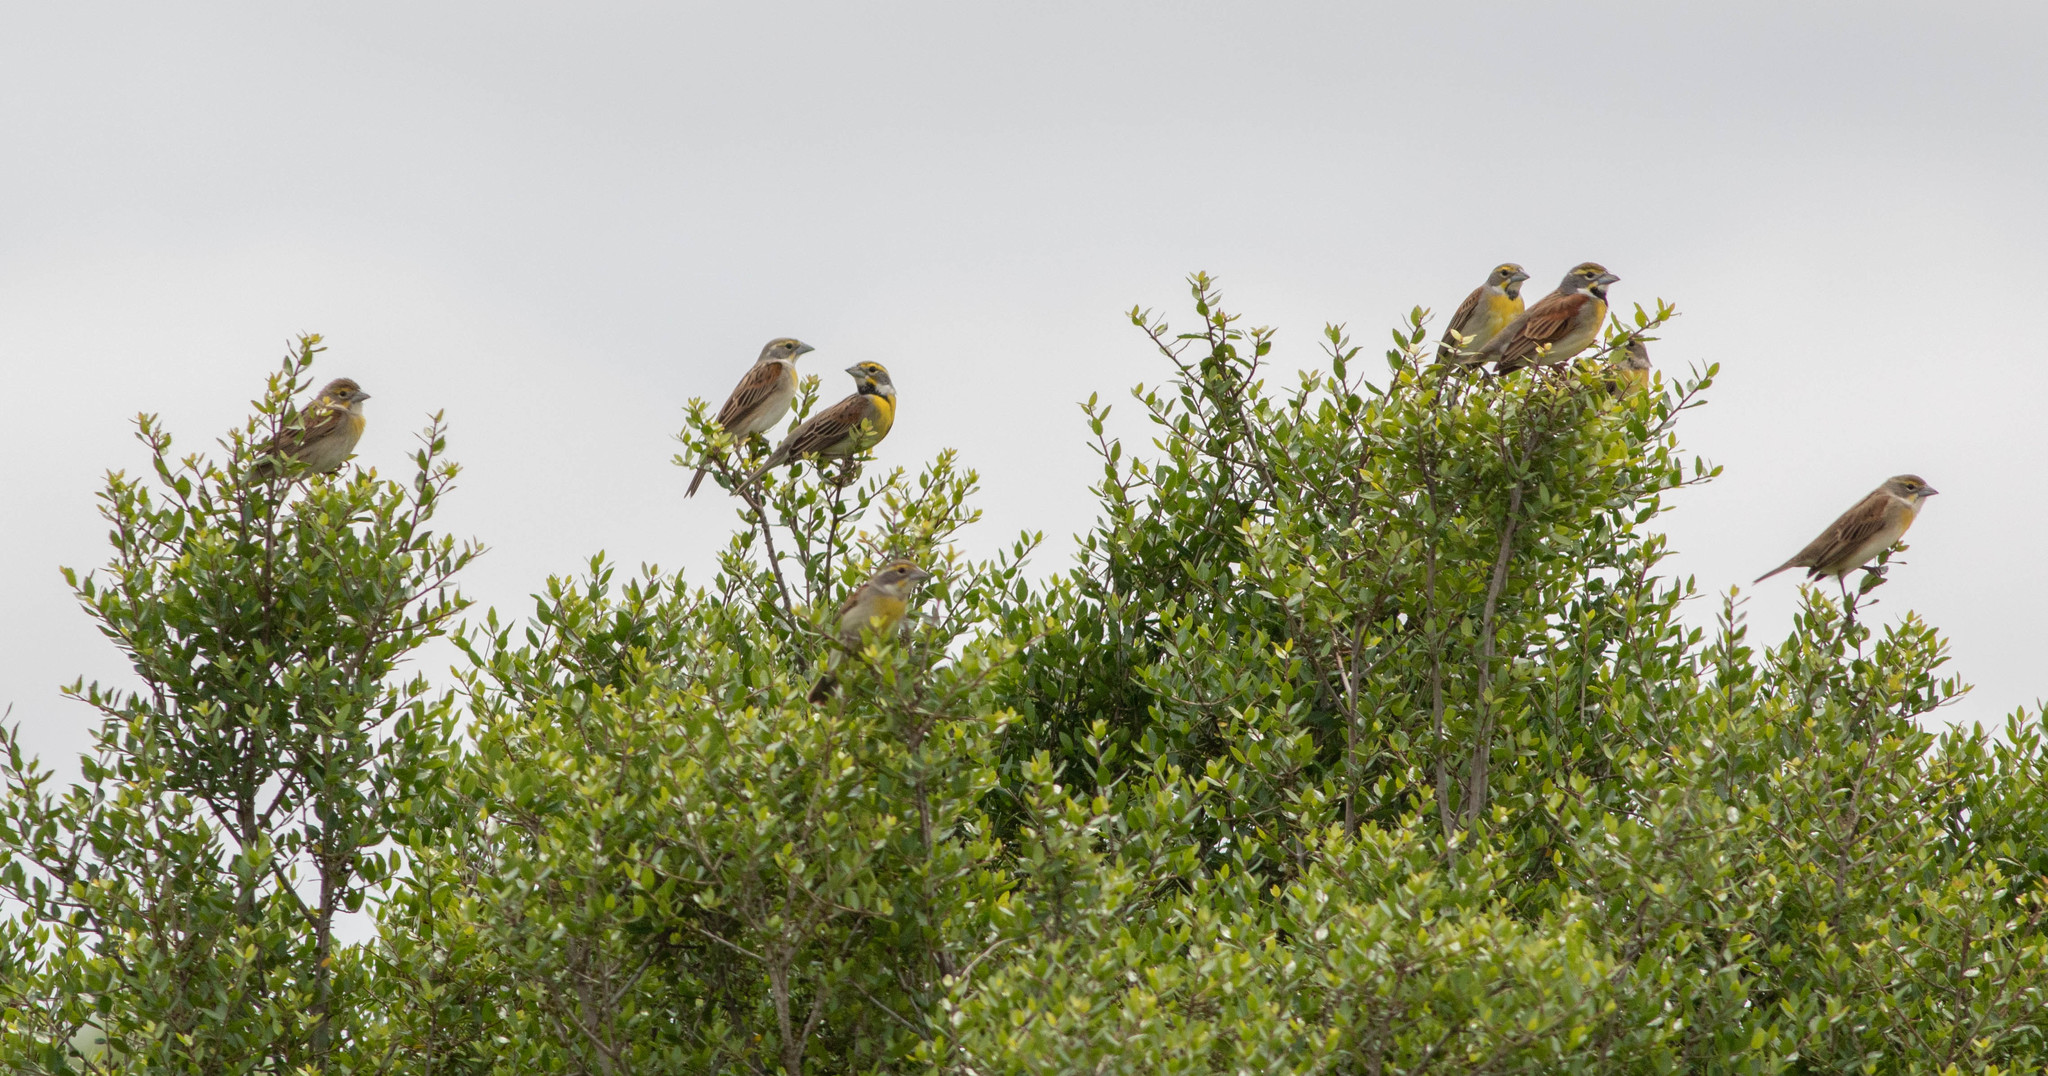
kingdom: Animalia
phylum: Chordata
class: Aves
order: Passeriformes
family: Cardinalidae
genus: Spiza
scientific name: Spiza americana
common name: Dickcissel
